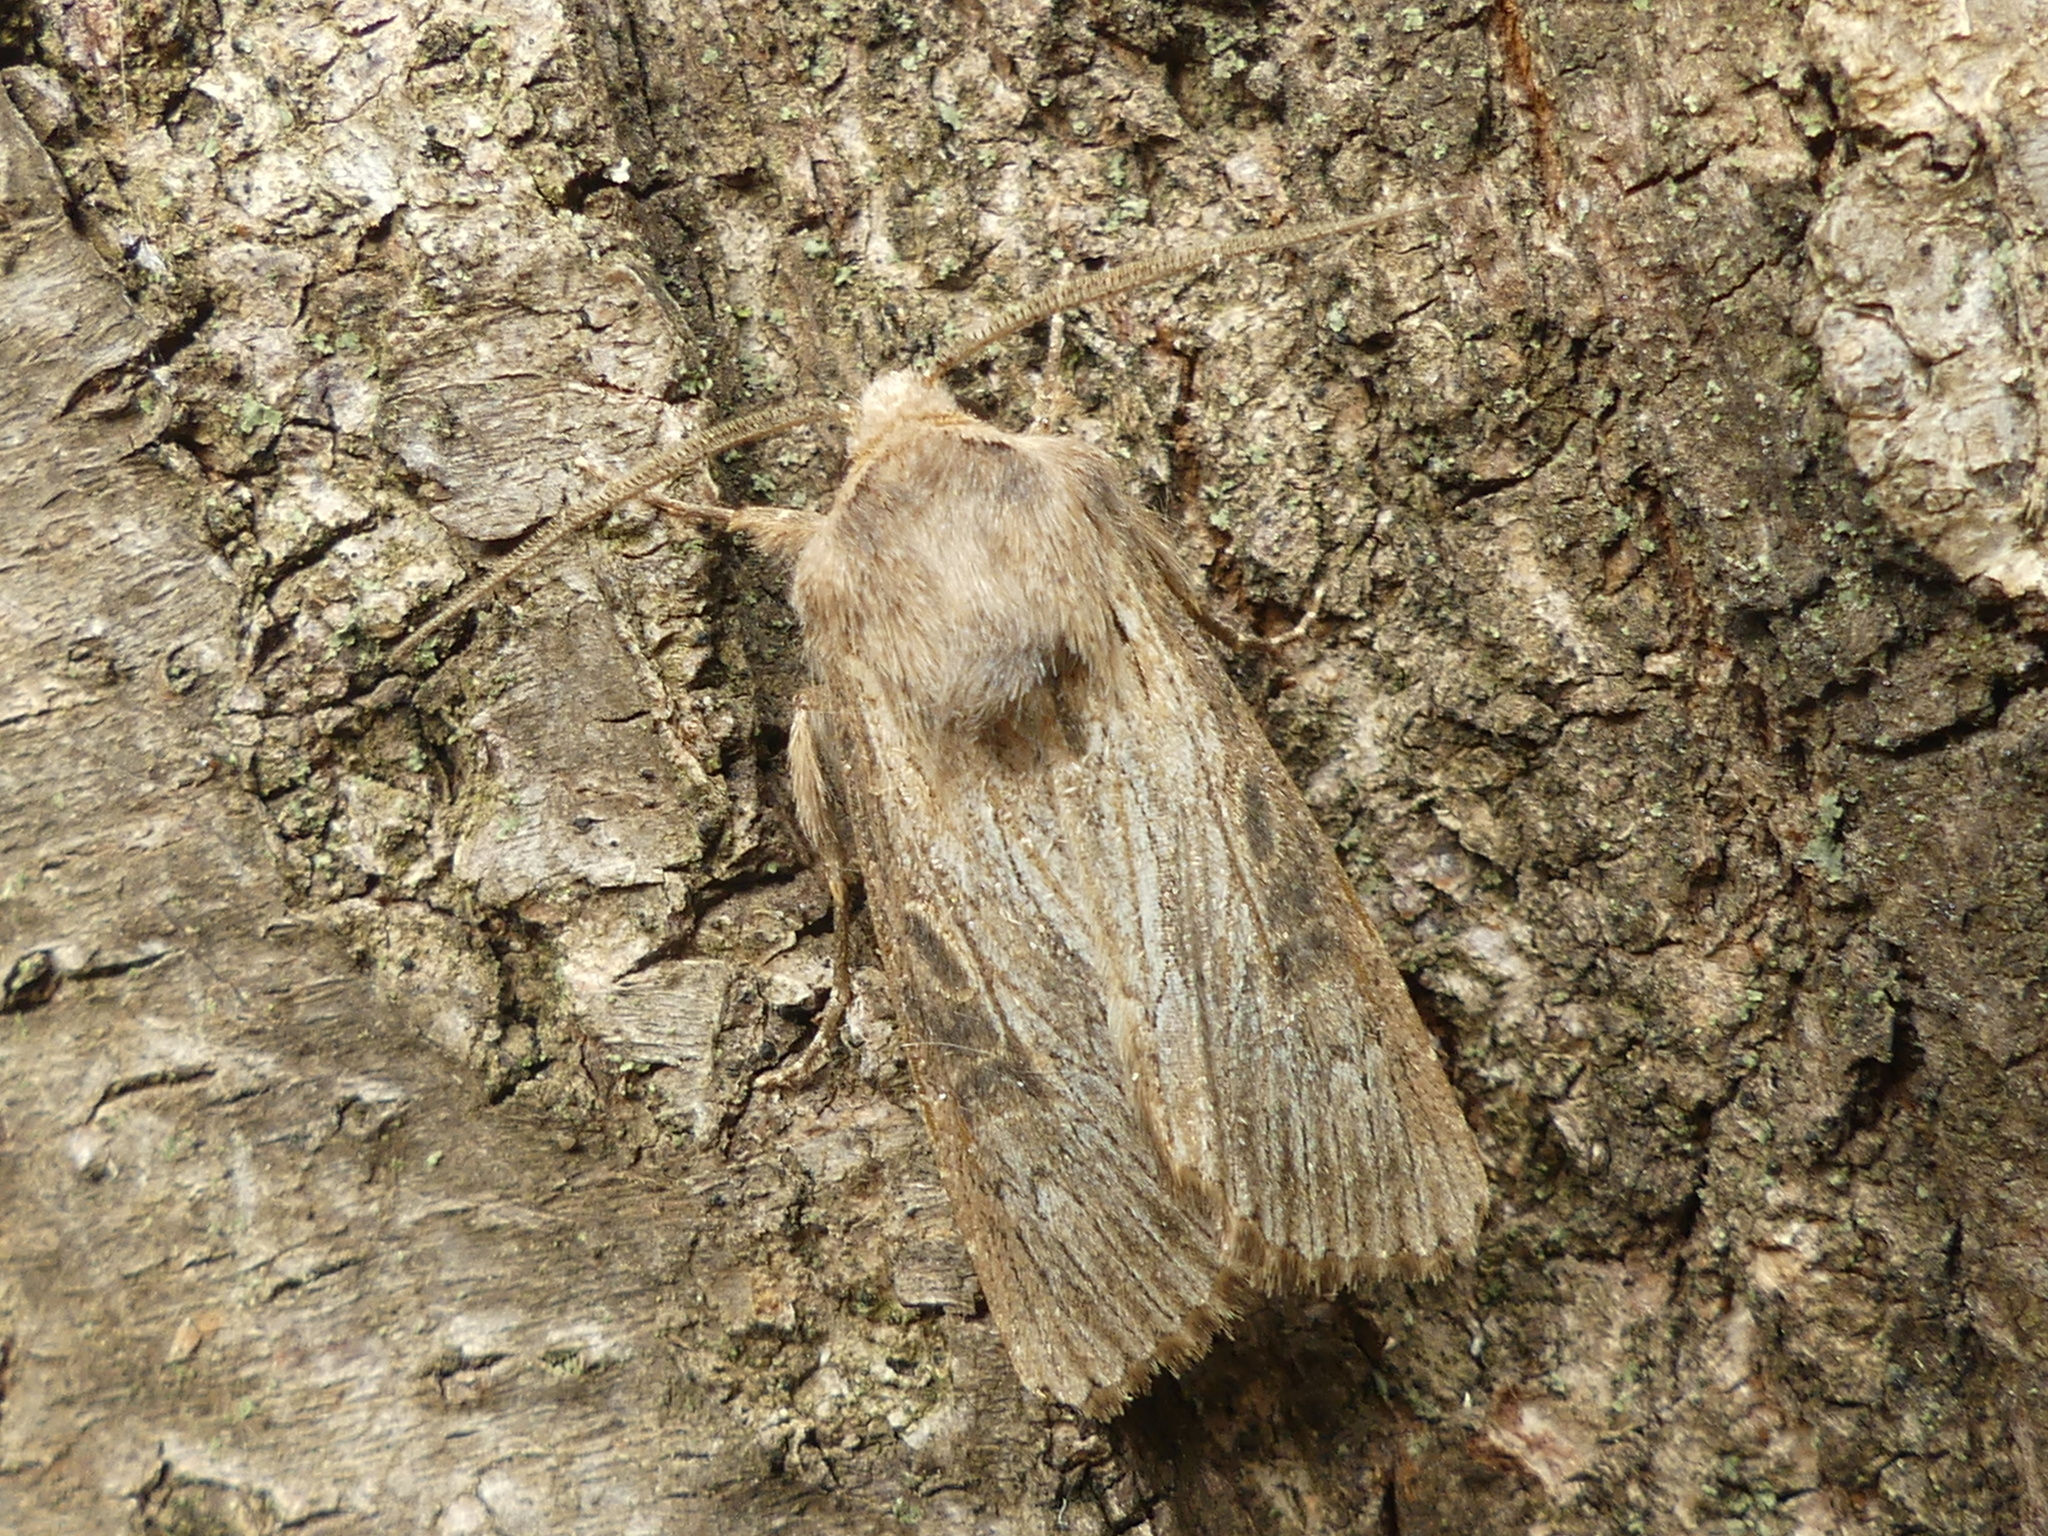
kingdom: Animalia
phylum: Arthropoda
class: Insecta
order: Lepidoptera
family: Noctuidae
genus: Aporophyla
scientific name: Aporophyla australis
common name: Feathered brindle
